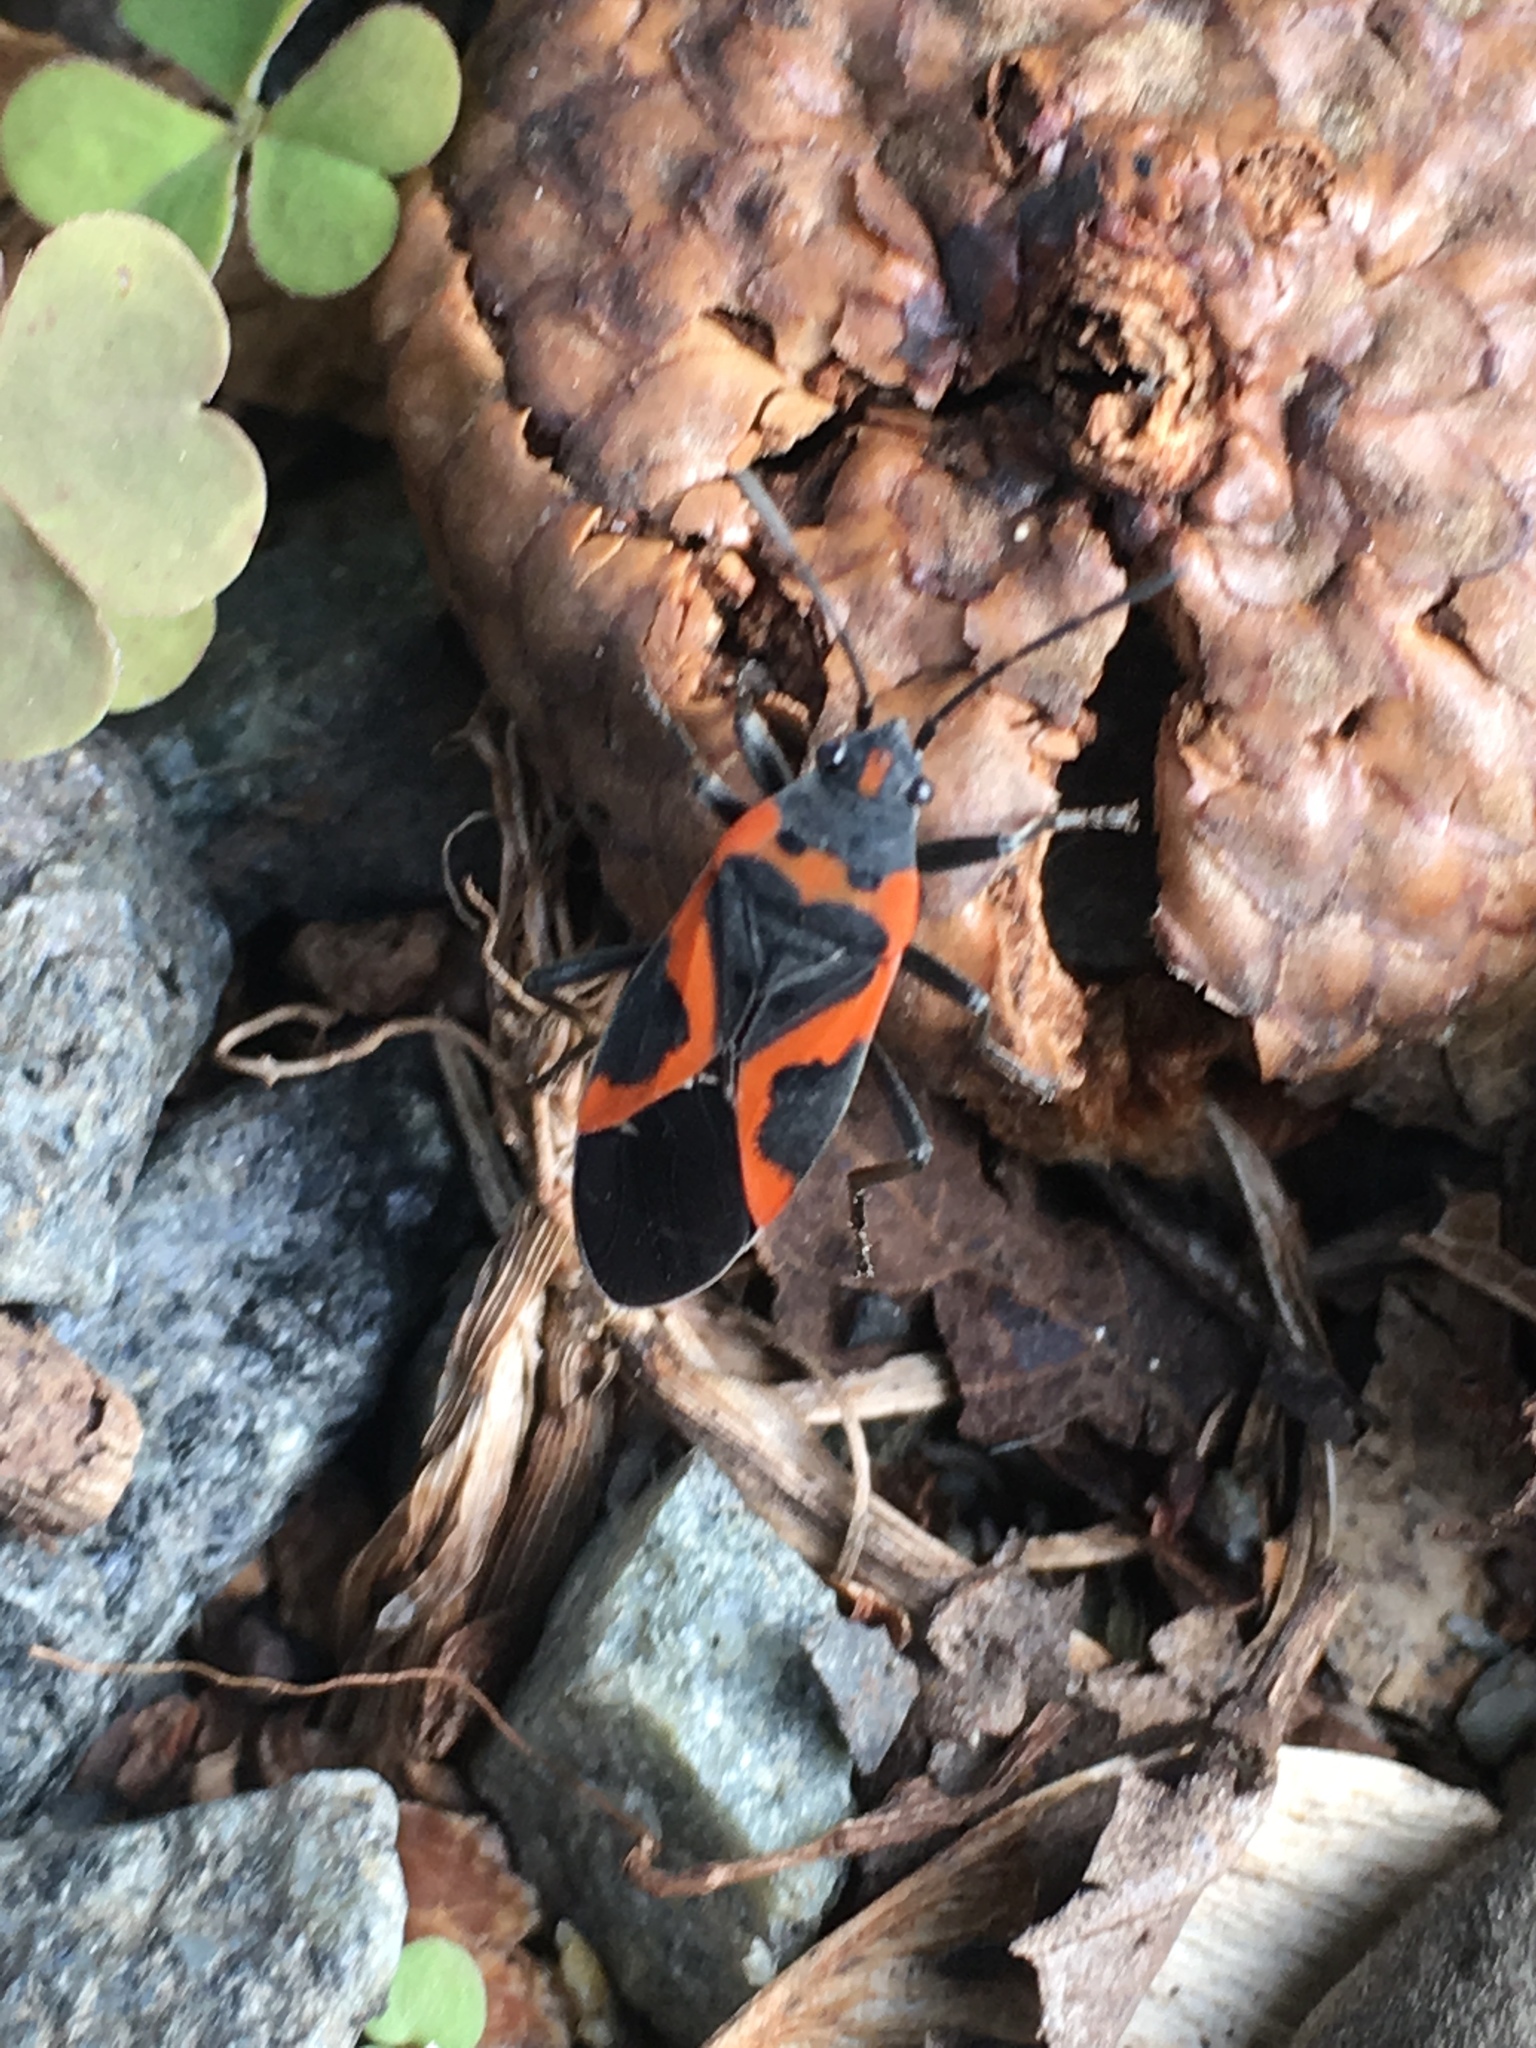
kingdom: Animalia
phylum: Arthropoda
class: Insecta
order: Hemiptera
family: Lygaeidae
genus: Lygaeus
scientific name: Lygaeus kalmii
